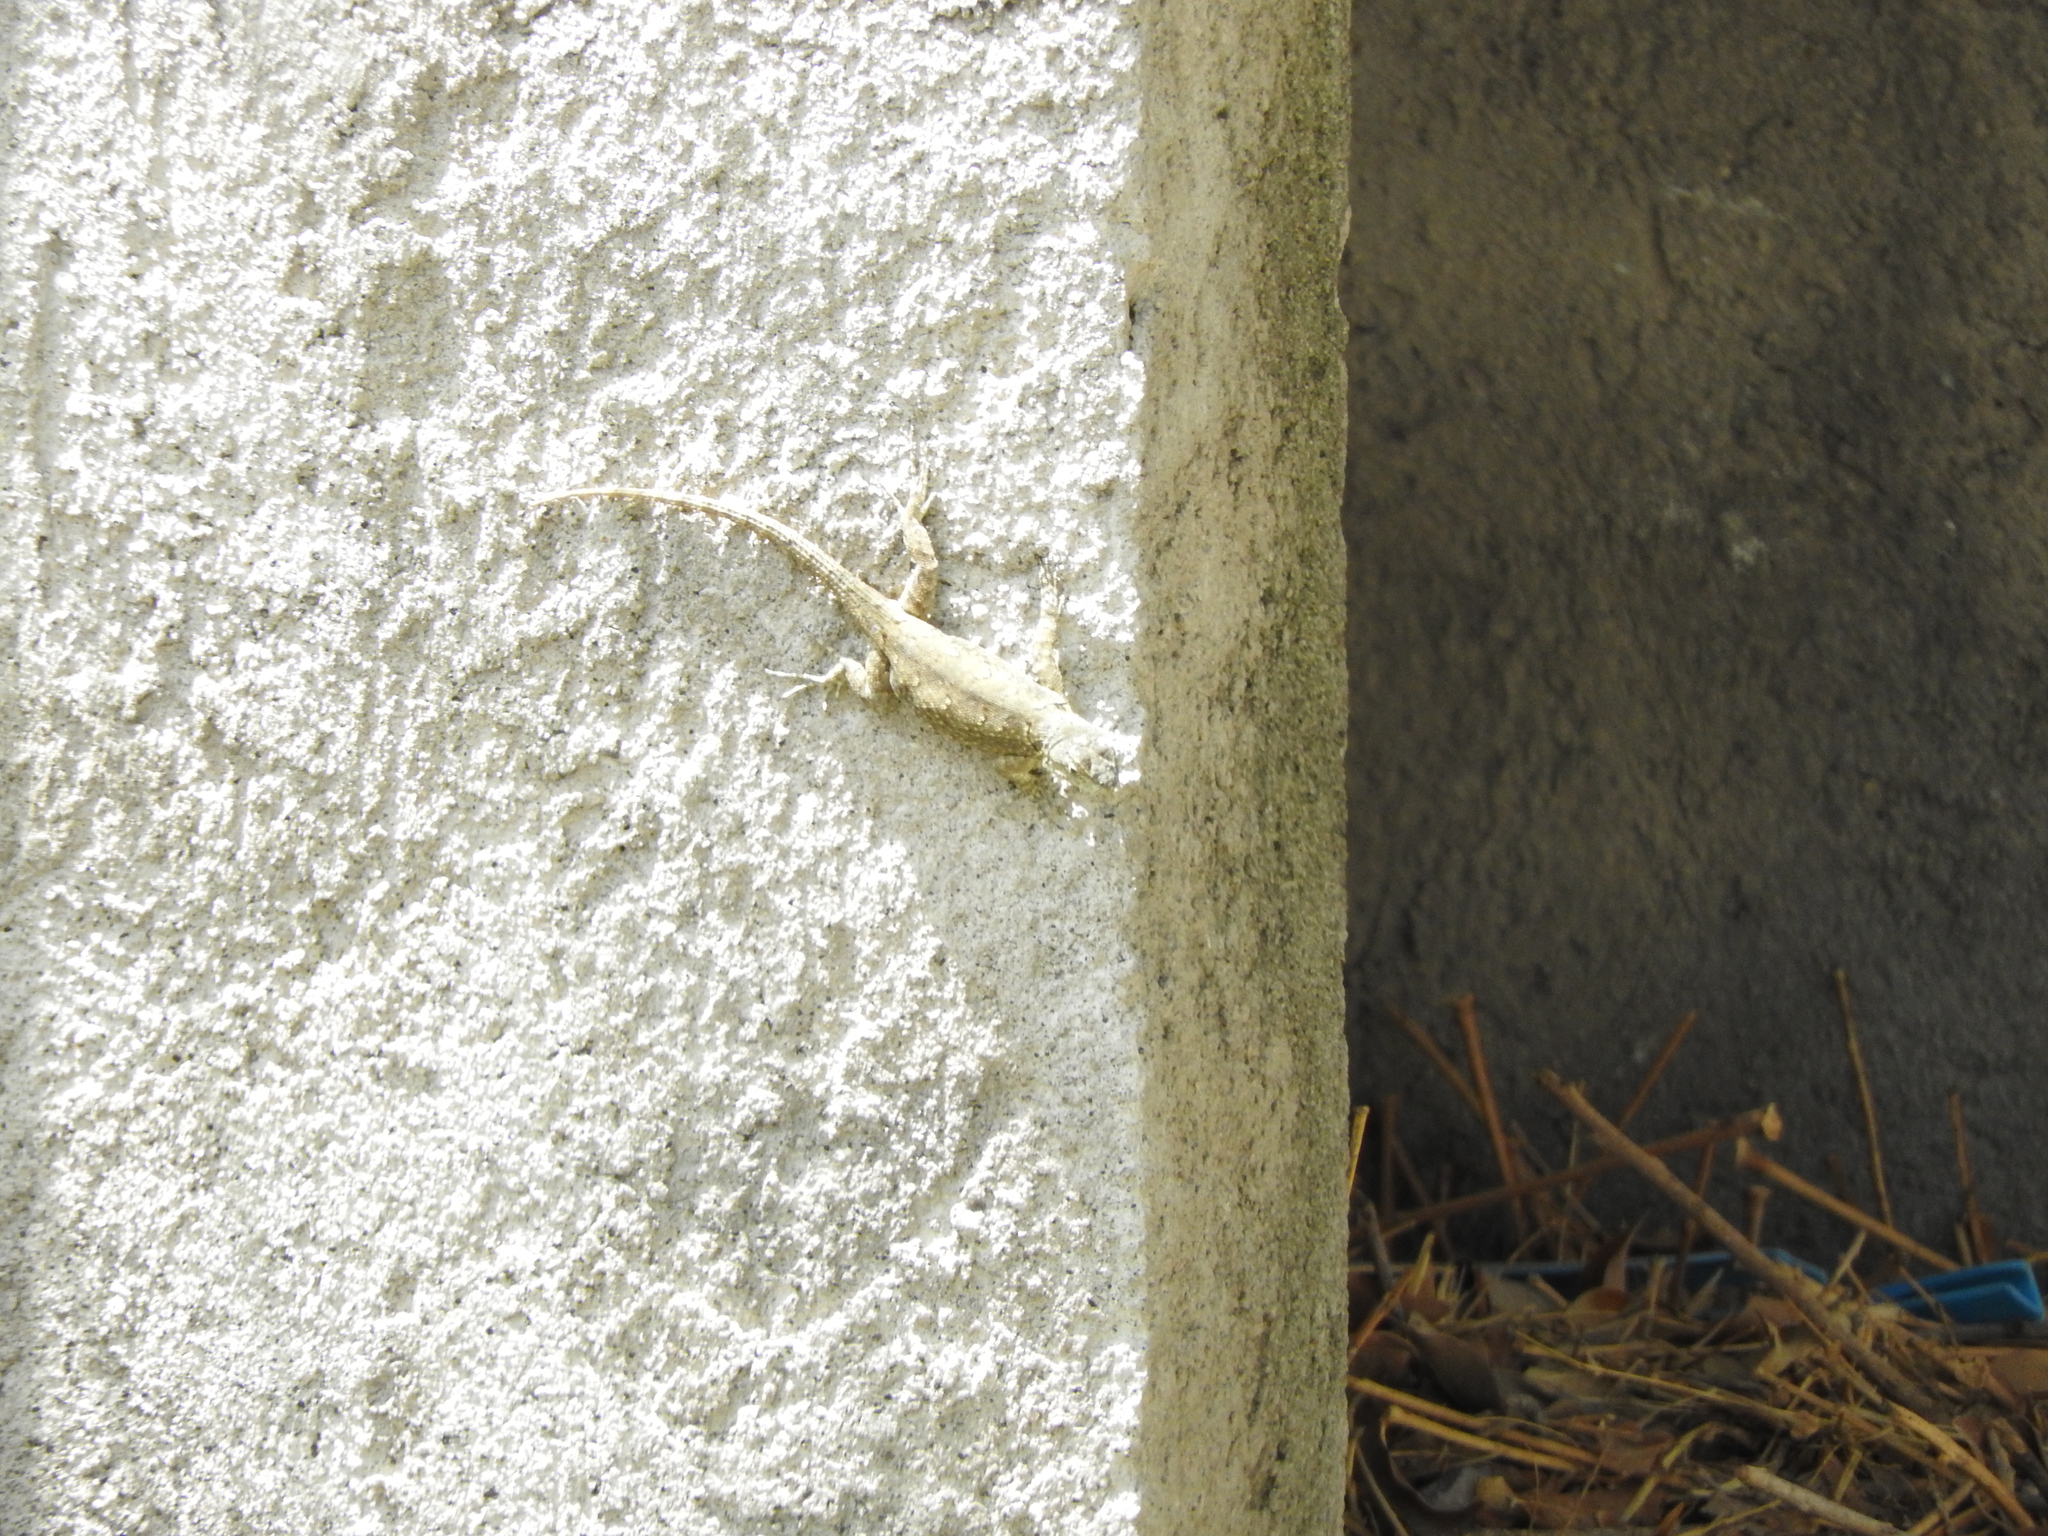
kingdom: Animalia
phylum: Chordata
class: Squamata
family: Phrynosomatidae
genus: Sceloporus
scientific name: Sceloporus grammicus
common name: Mesquite lizard
